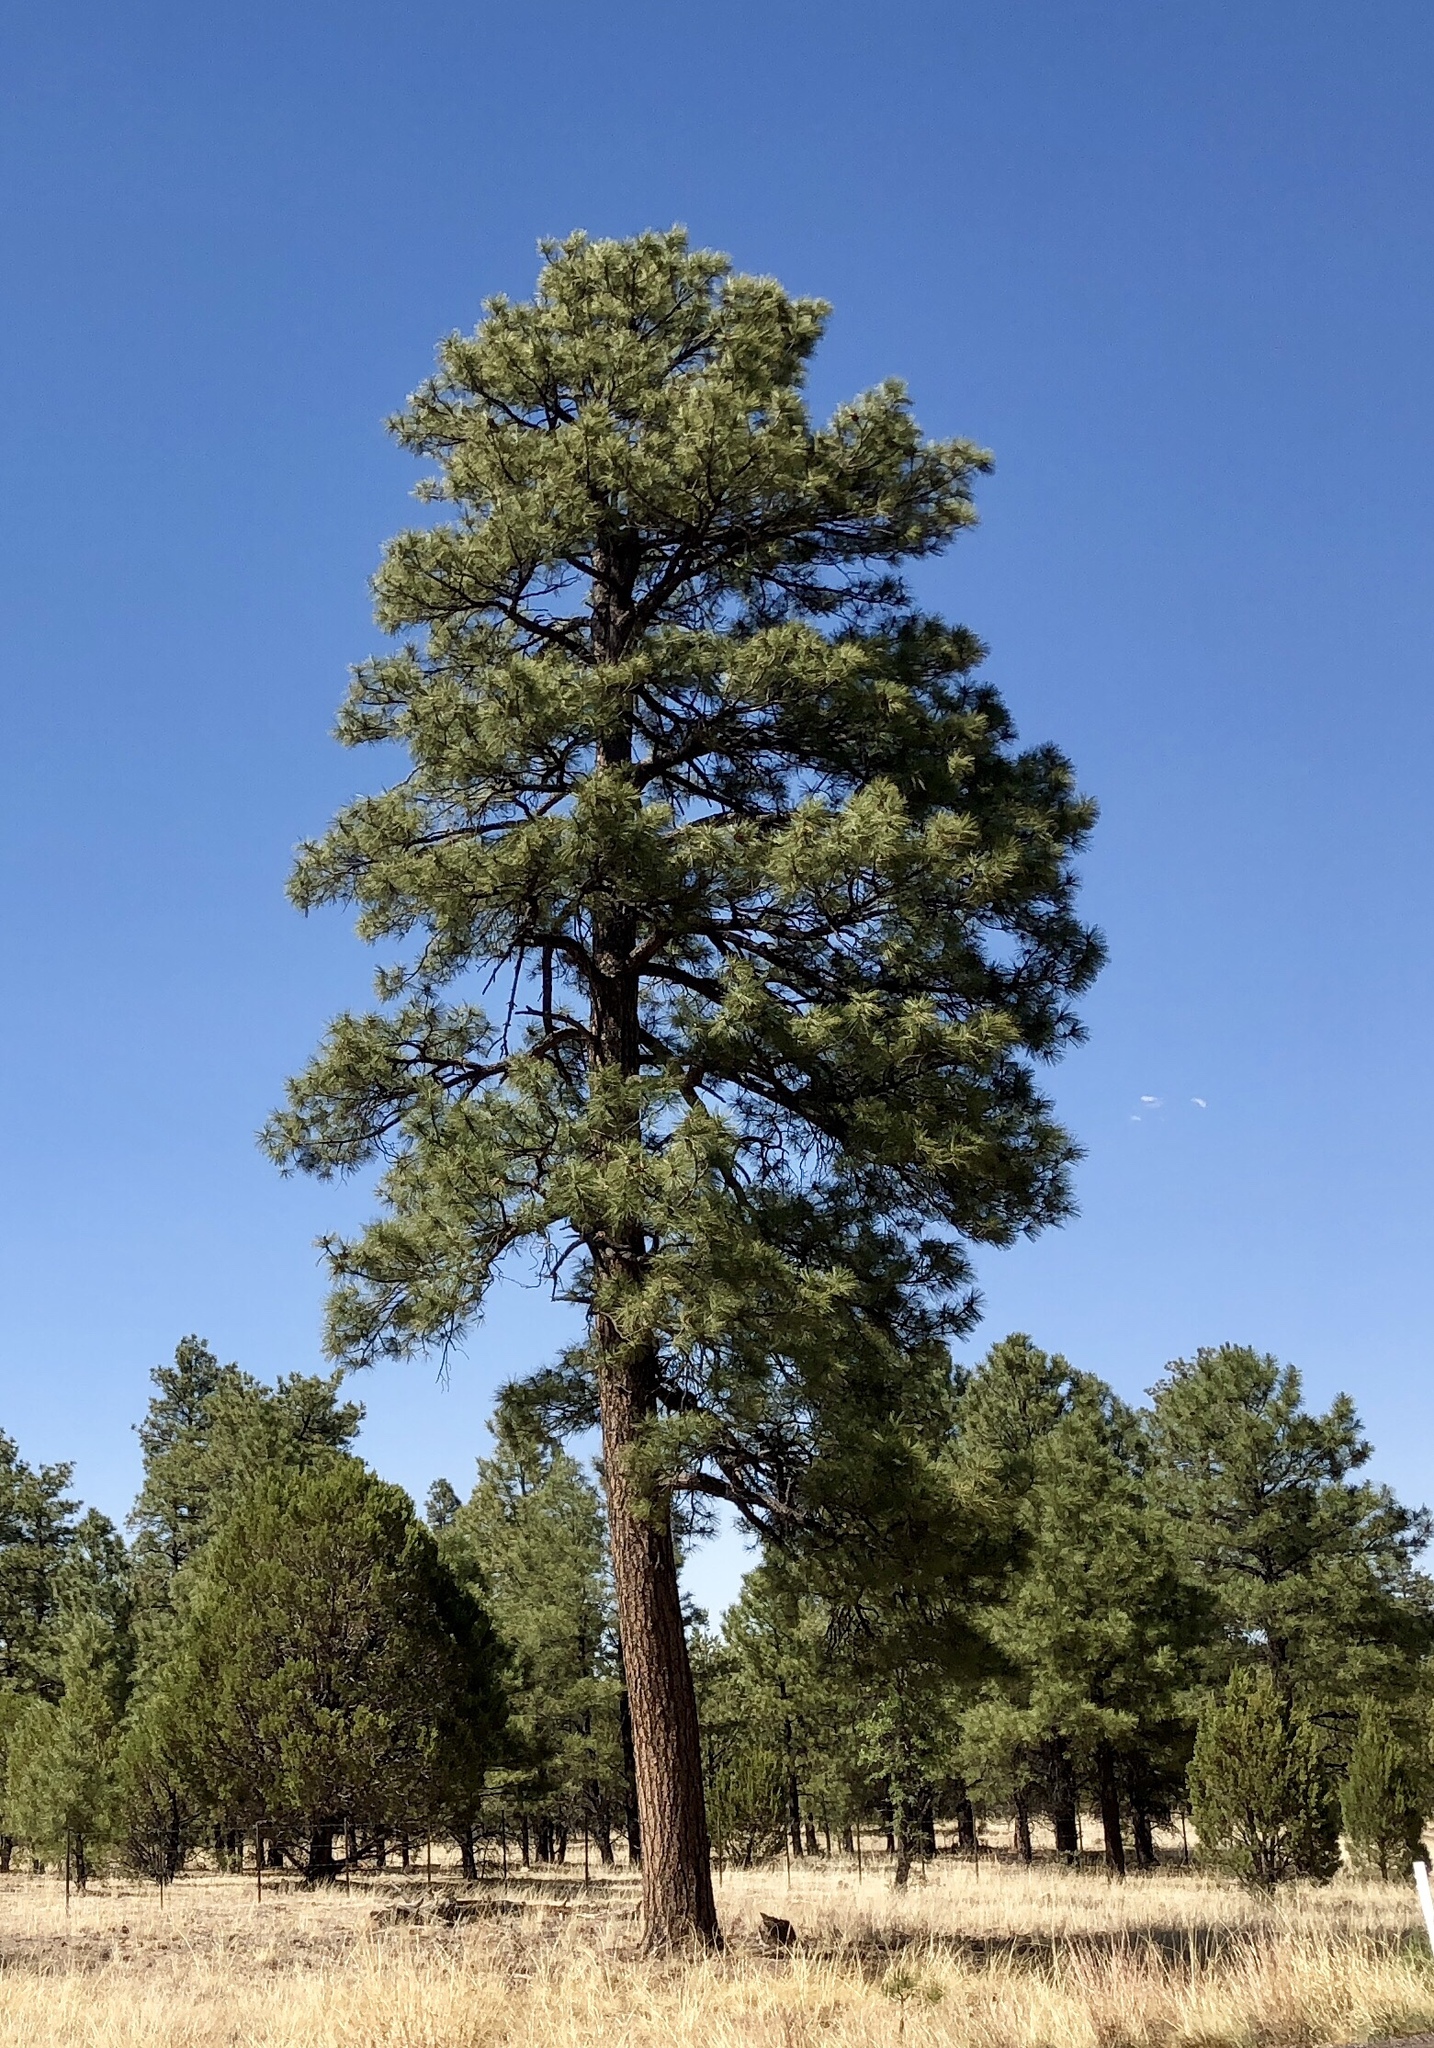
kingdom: Plantae
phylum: Tracheophyta
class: Pinopsida
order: Pinales
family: Pinaceae
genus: Pinus
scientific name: Pinus ponderosa
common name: Western yellow-pine
